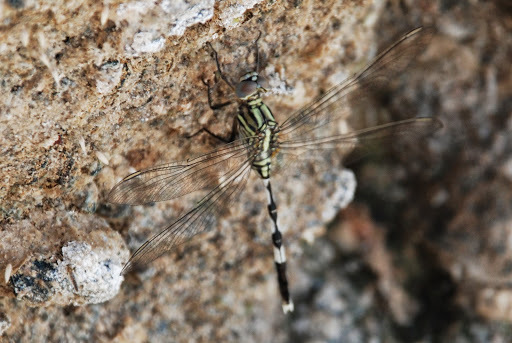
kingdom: Animalia
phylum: Arthropoda
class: Insecta
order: Odonata
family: Libellulidae
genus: Orthetrum
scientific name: Orthetrum sabina
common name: Slender skimmer
